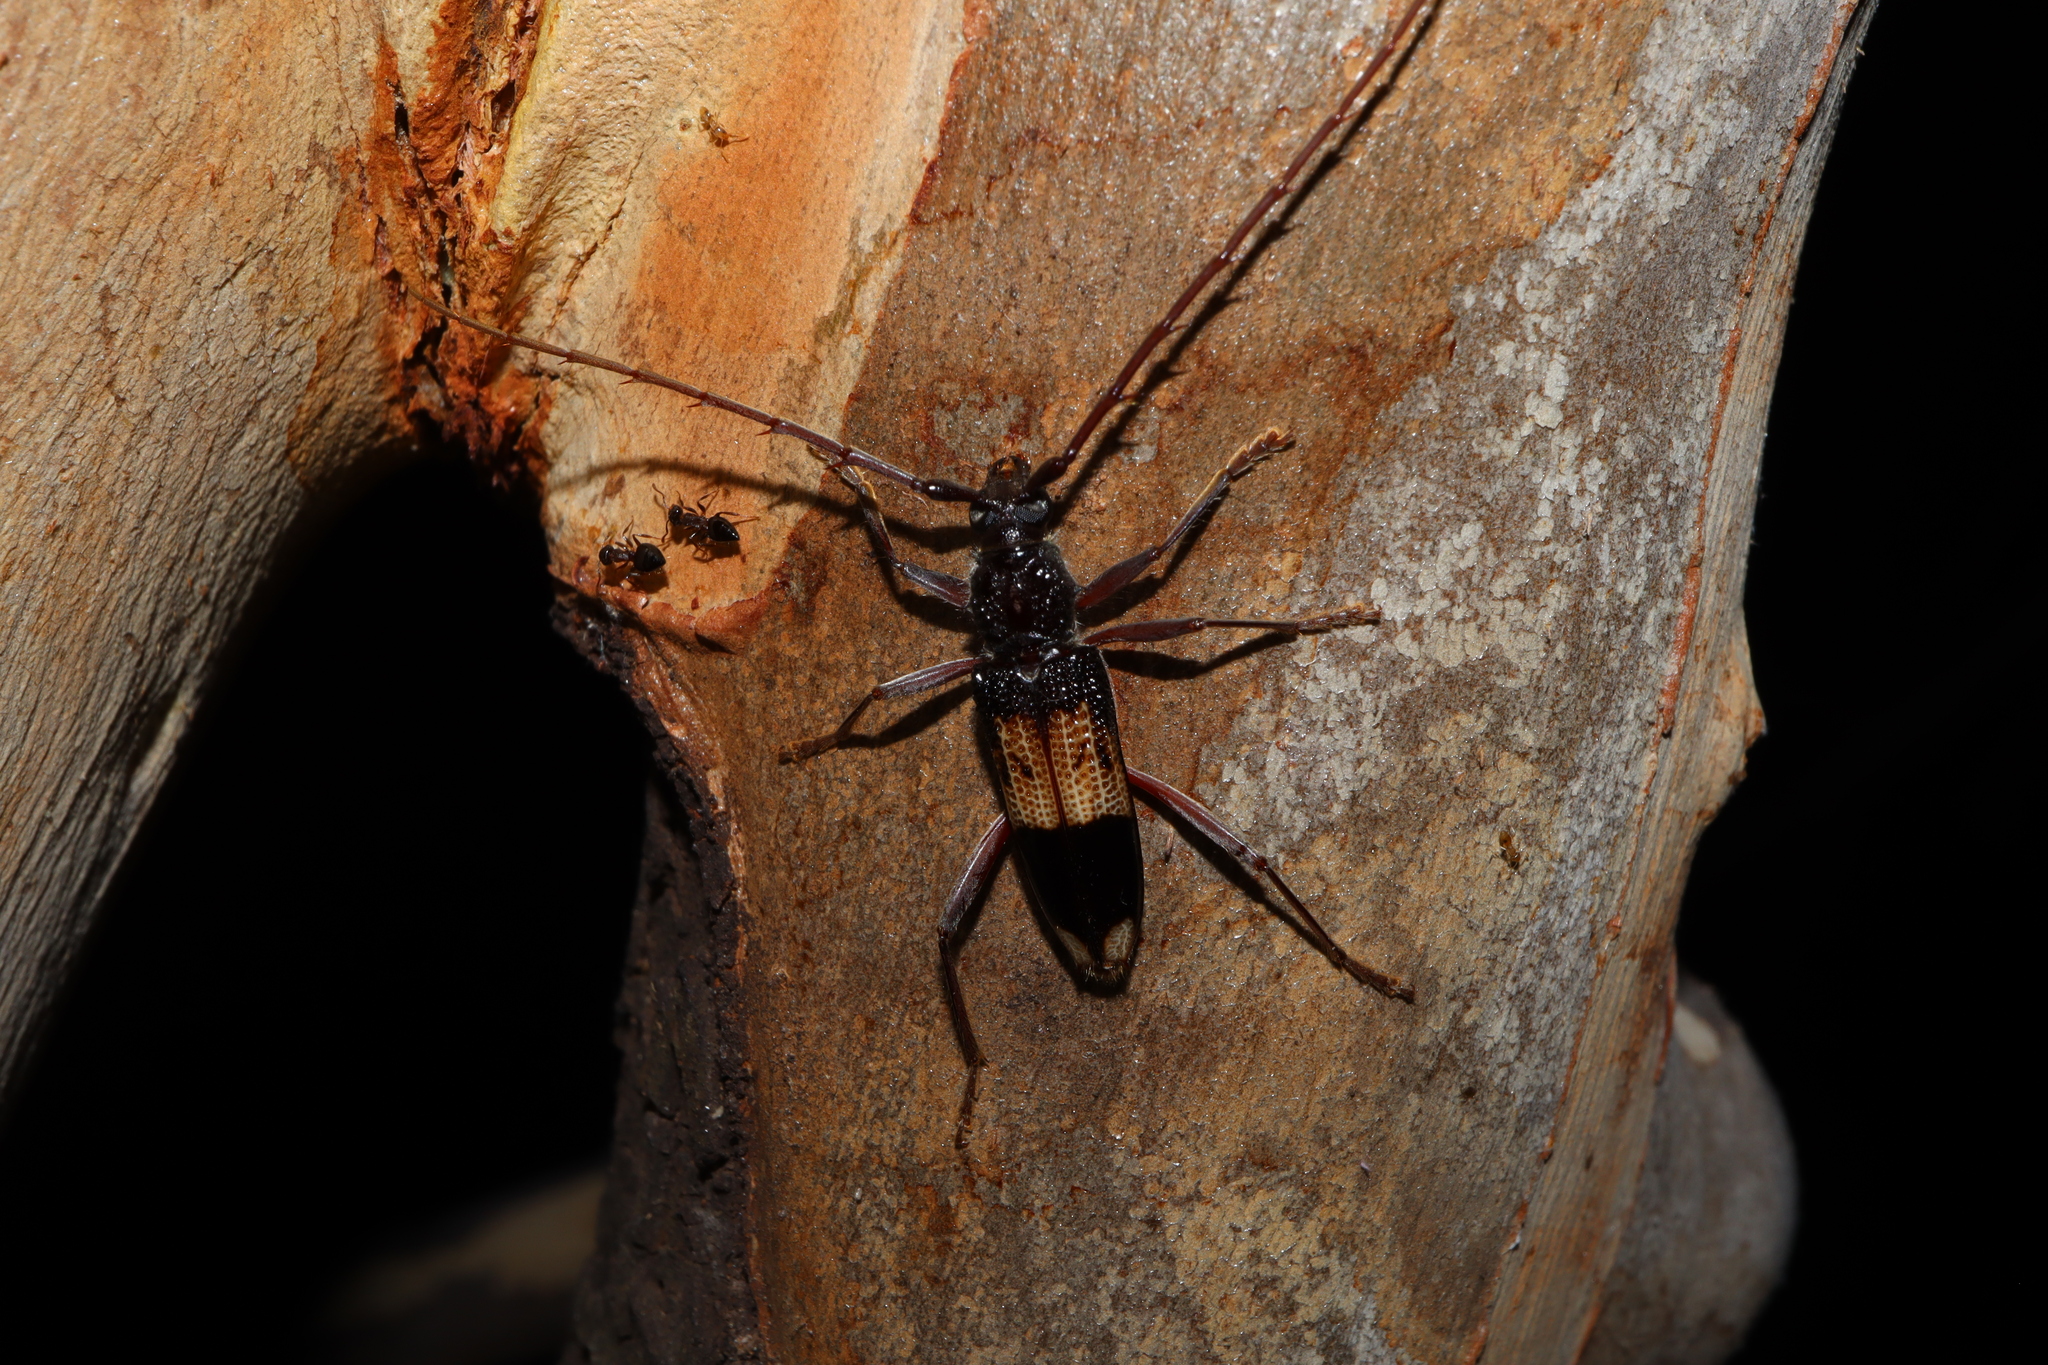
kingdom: Animalia
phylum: Arthropoda
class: Insecta
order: Coleoptera
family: Cerambycidae
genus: Phoracantha
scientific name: Phoracantha semipunctata
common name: Eucalyptus longhorn borer
